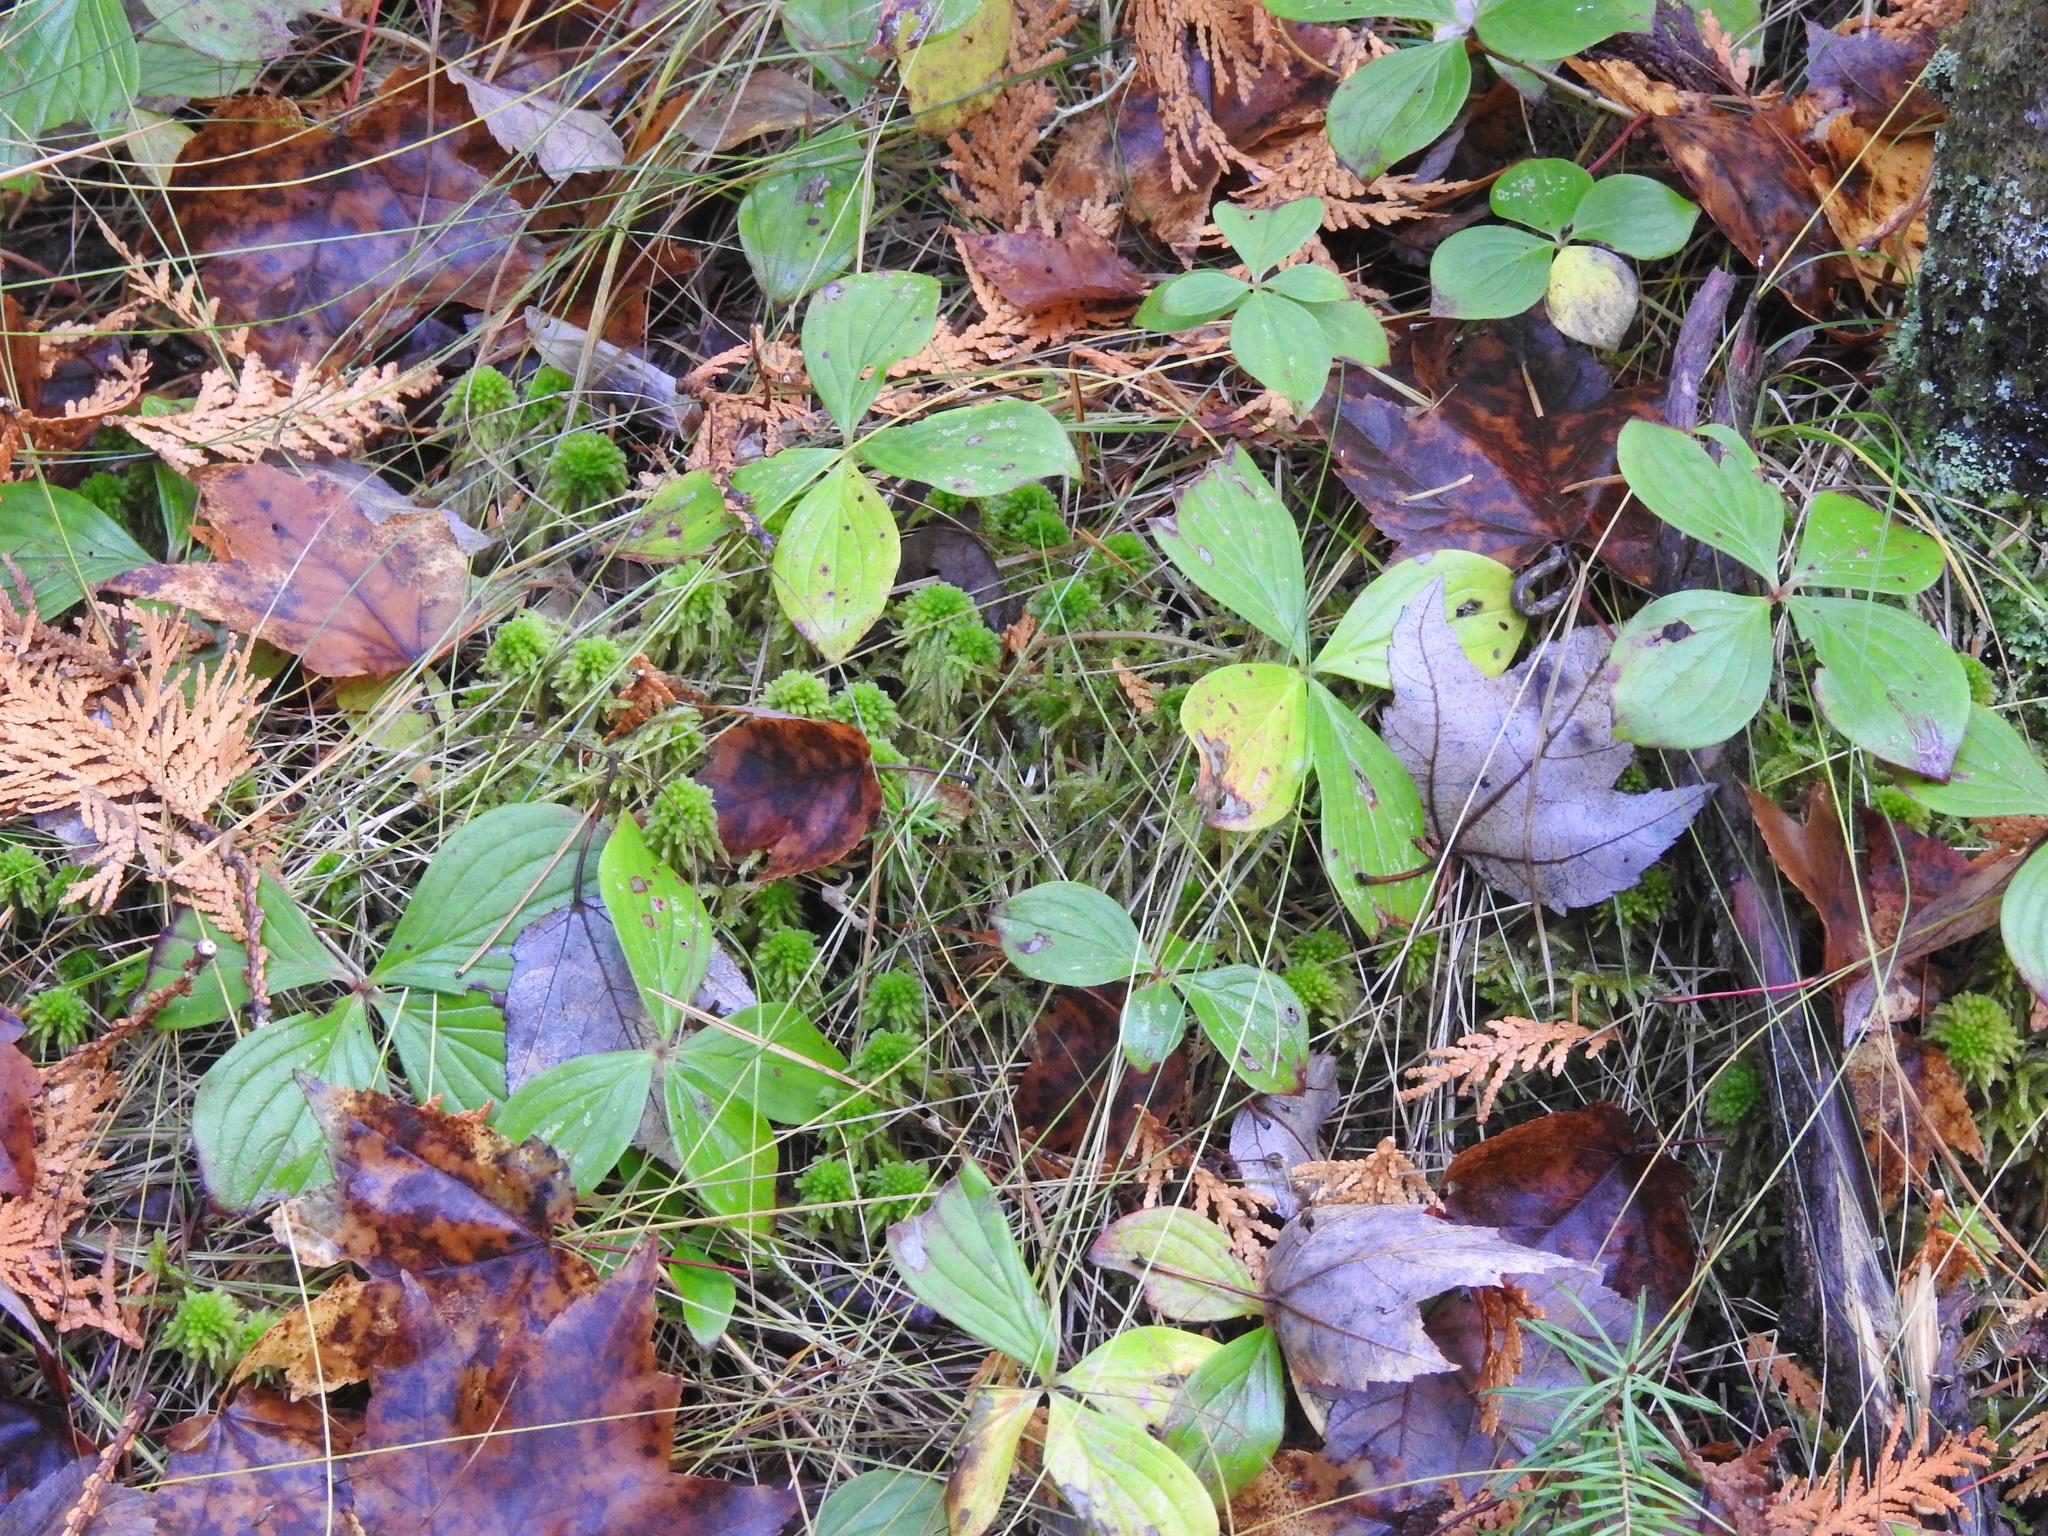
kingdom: Plantae
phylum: Tracheophyta
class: Magnoliopsida
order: Cornales
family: Cornaceae
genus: Cornus
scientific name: Cornus canadensis
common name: Creeping dogwood
